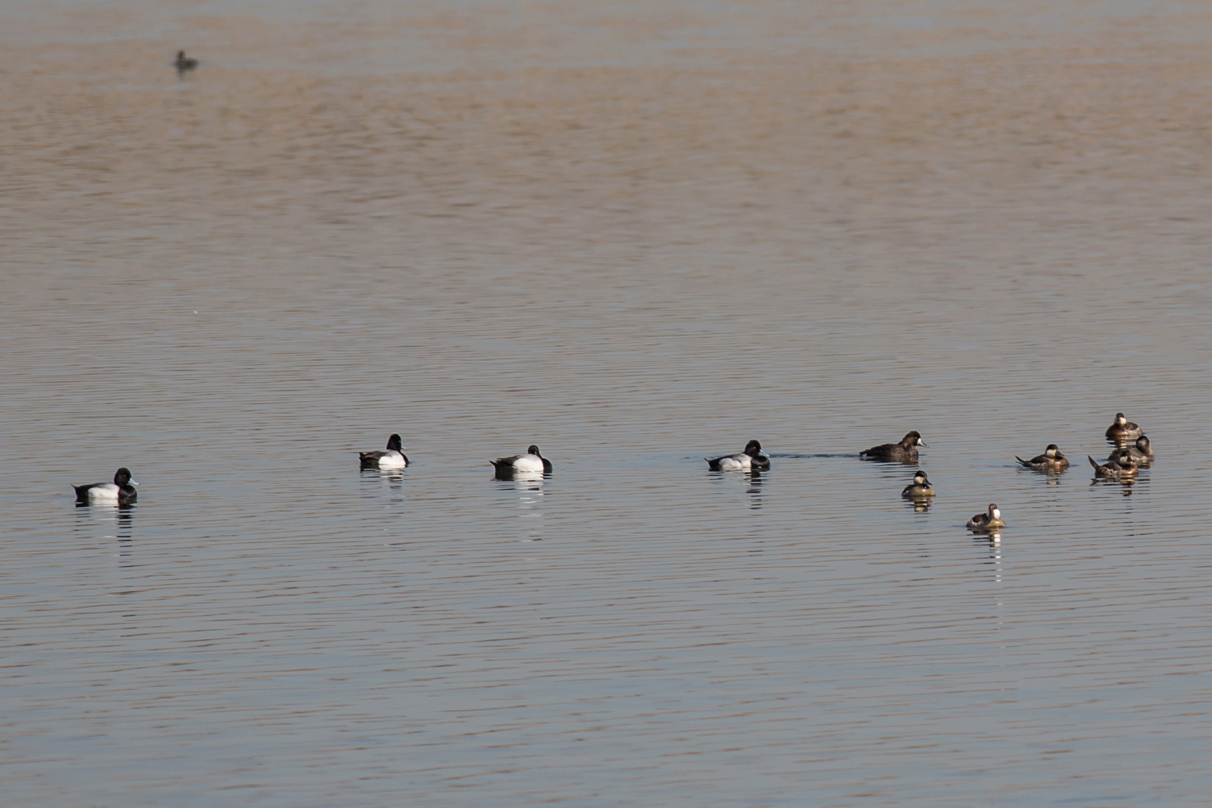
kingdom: Animalia
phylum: Chordata
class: Aves
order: Anseriformes
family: Anatidae
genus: Aythya
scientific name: Aythya affinis
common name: Lesser scaup
